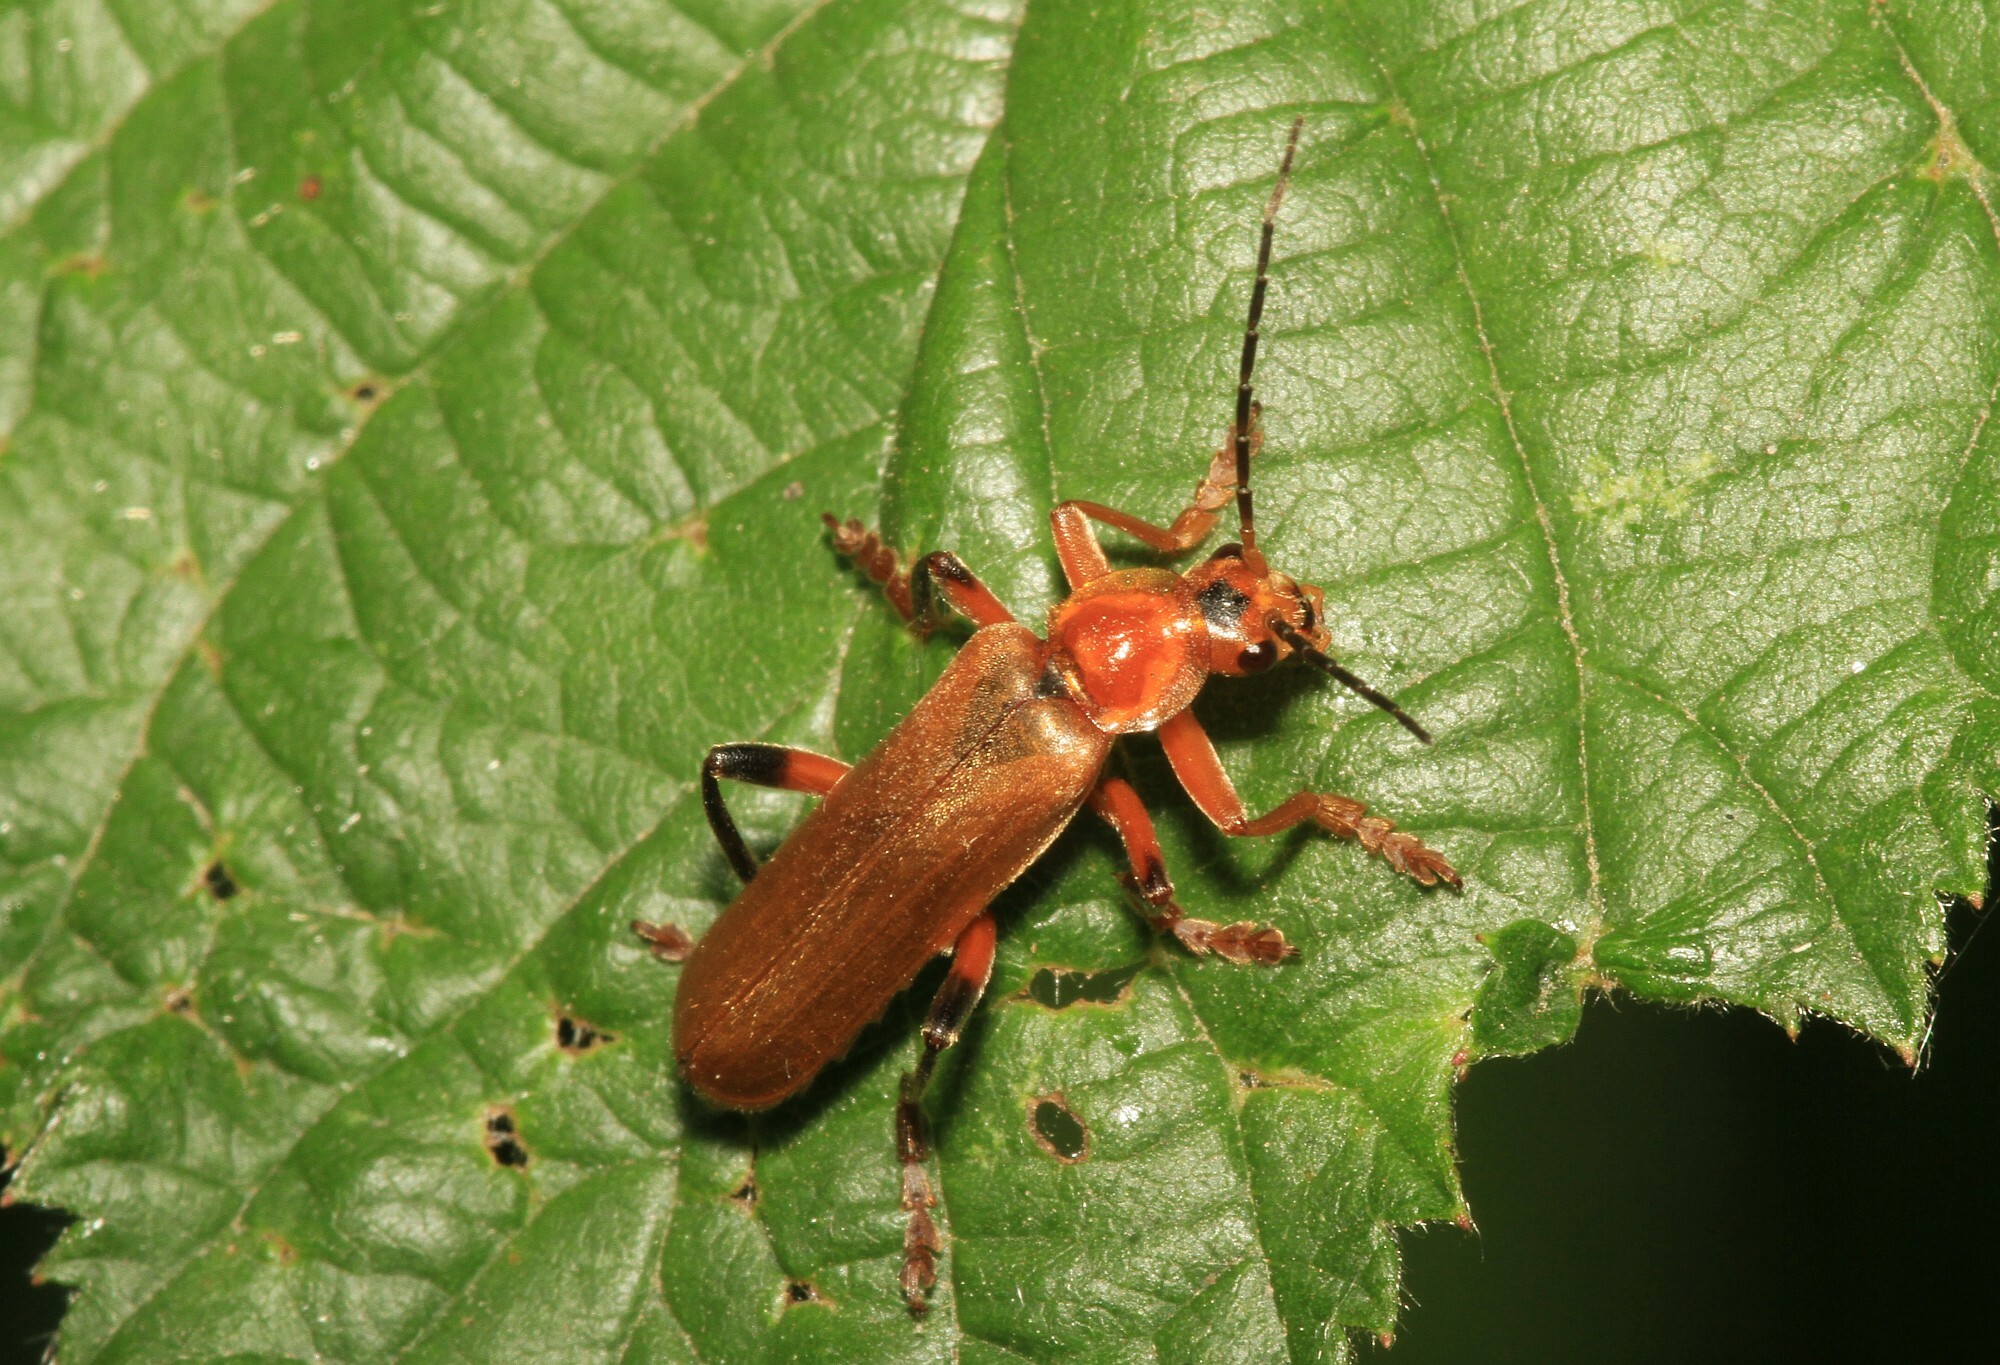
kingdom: Animalia
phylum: Arthropoda
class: Insecta
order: Coleoptera
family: Cantharidae
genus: Cantharis
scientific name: Cantharis livida
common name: Livid soldier beetle
